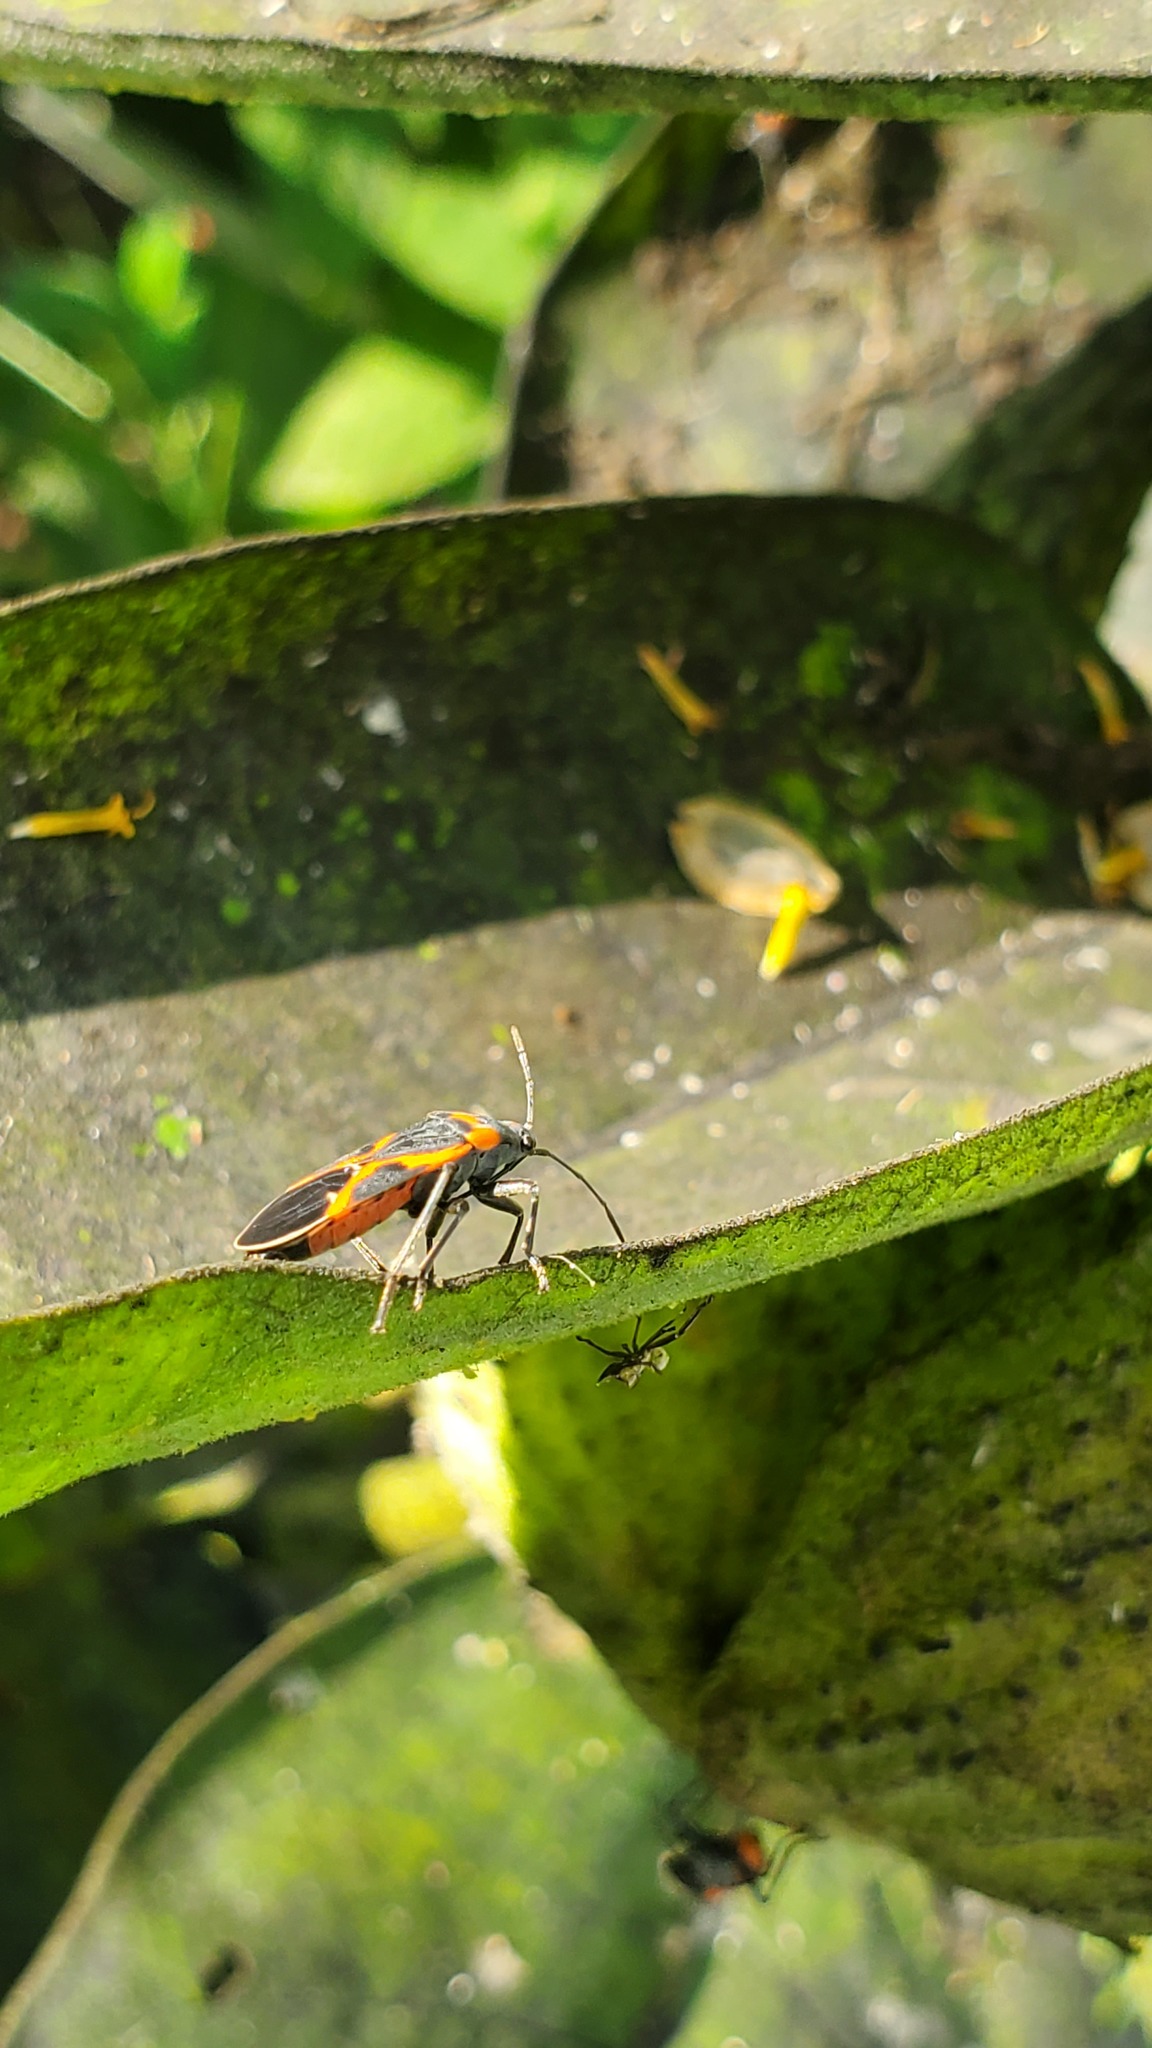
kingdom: Animalia
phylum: Arthropoda
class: Insecta
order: Hemiptera
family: Lygaeidae
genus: Lygaeus
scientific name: Lygaeus kalmii
